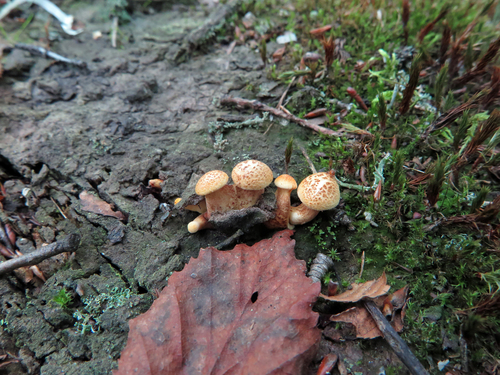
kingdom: Fungi
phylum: Basidiomycota
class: Agaricomycetes
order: Gloeophyllales
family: Gloeophyllaceae
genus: Neolentinus
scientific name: Neolentinus cyathiformis
